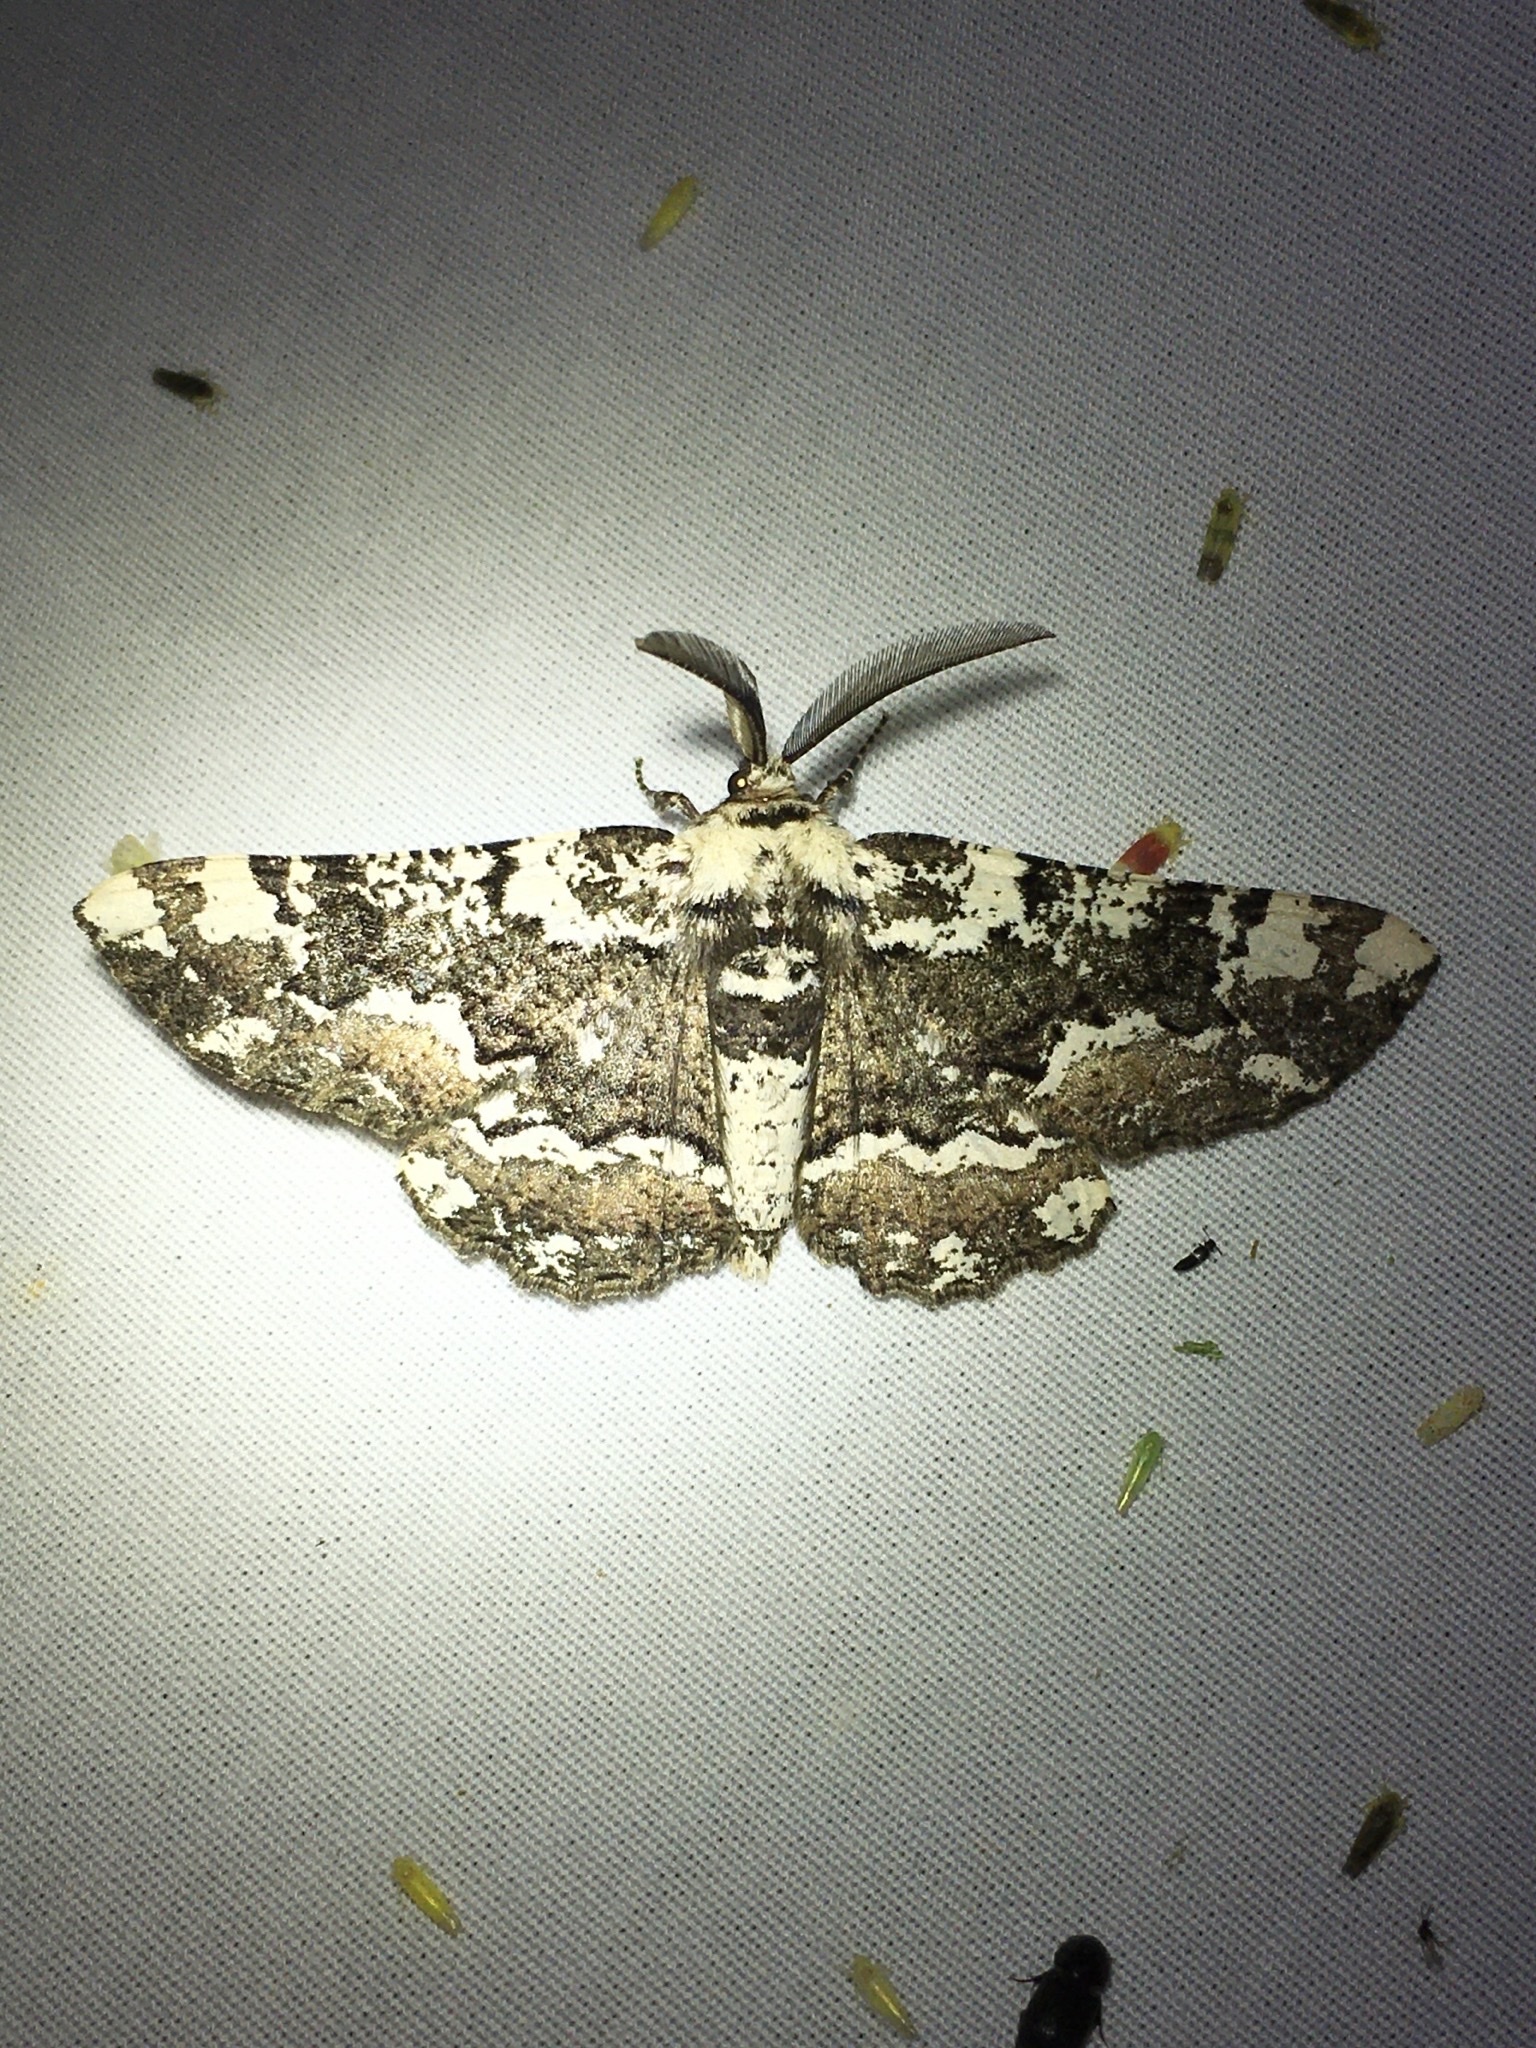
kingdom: Animalia
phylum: Arthropoda
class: Insecta
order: Lepidoptera
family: Geometridae
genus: Phaeoura
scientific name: Phaeoura quernaria
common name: Oak beauty
